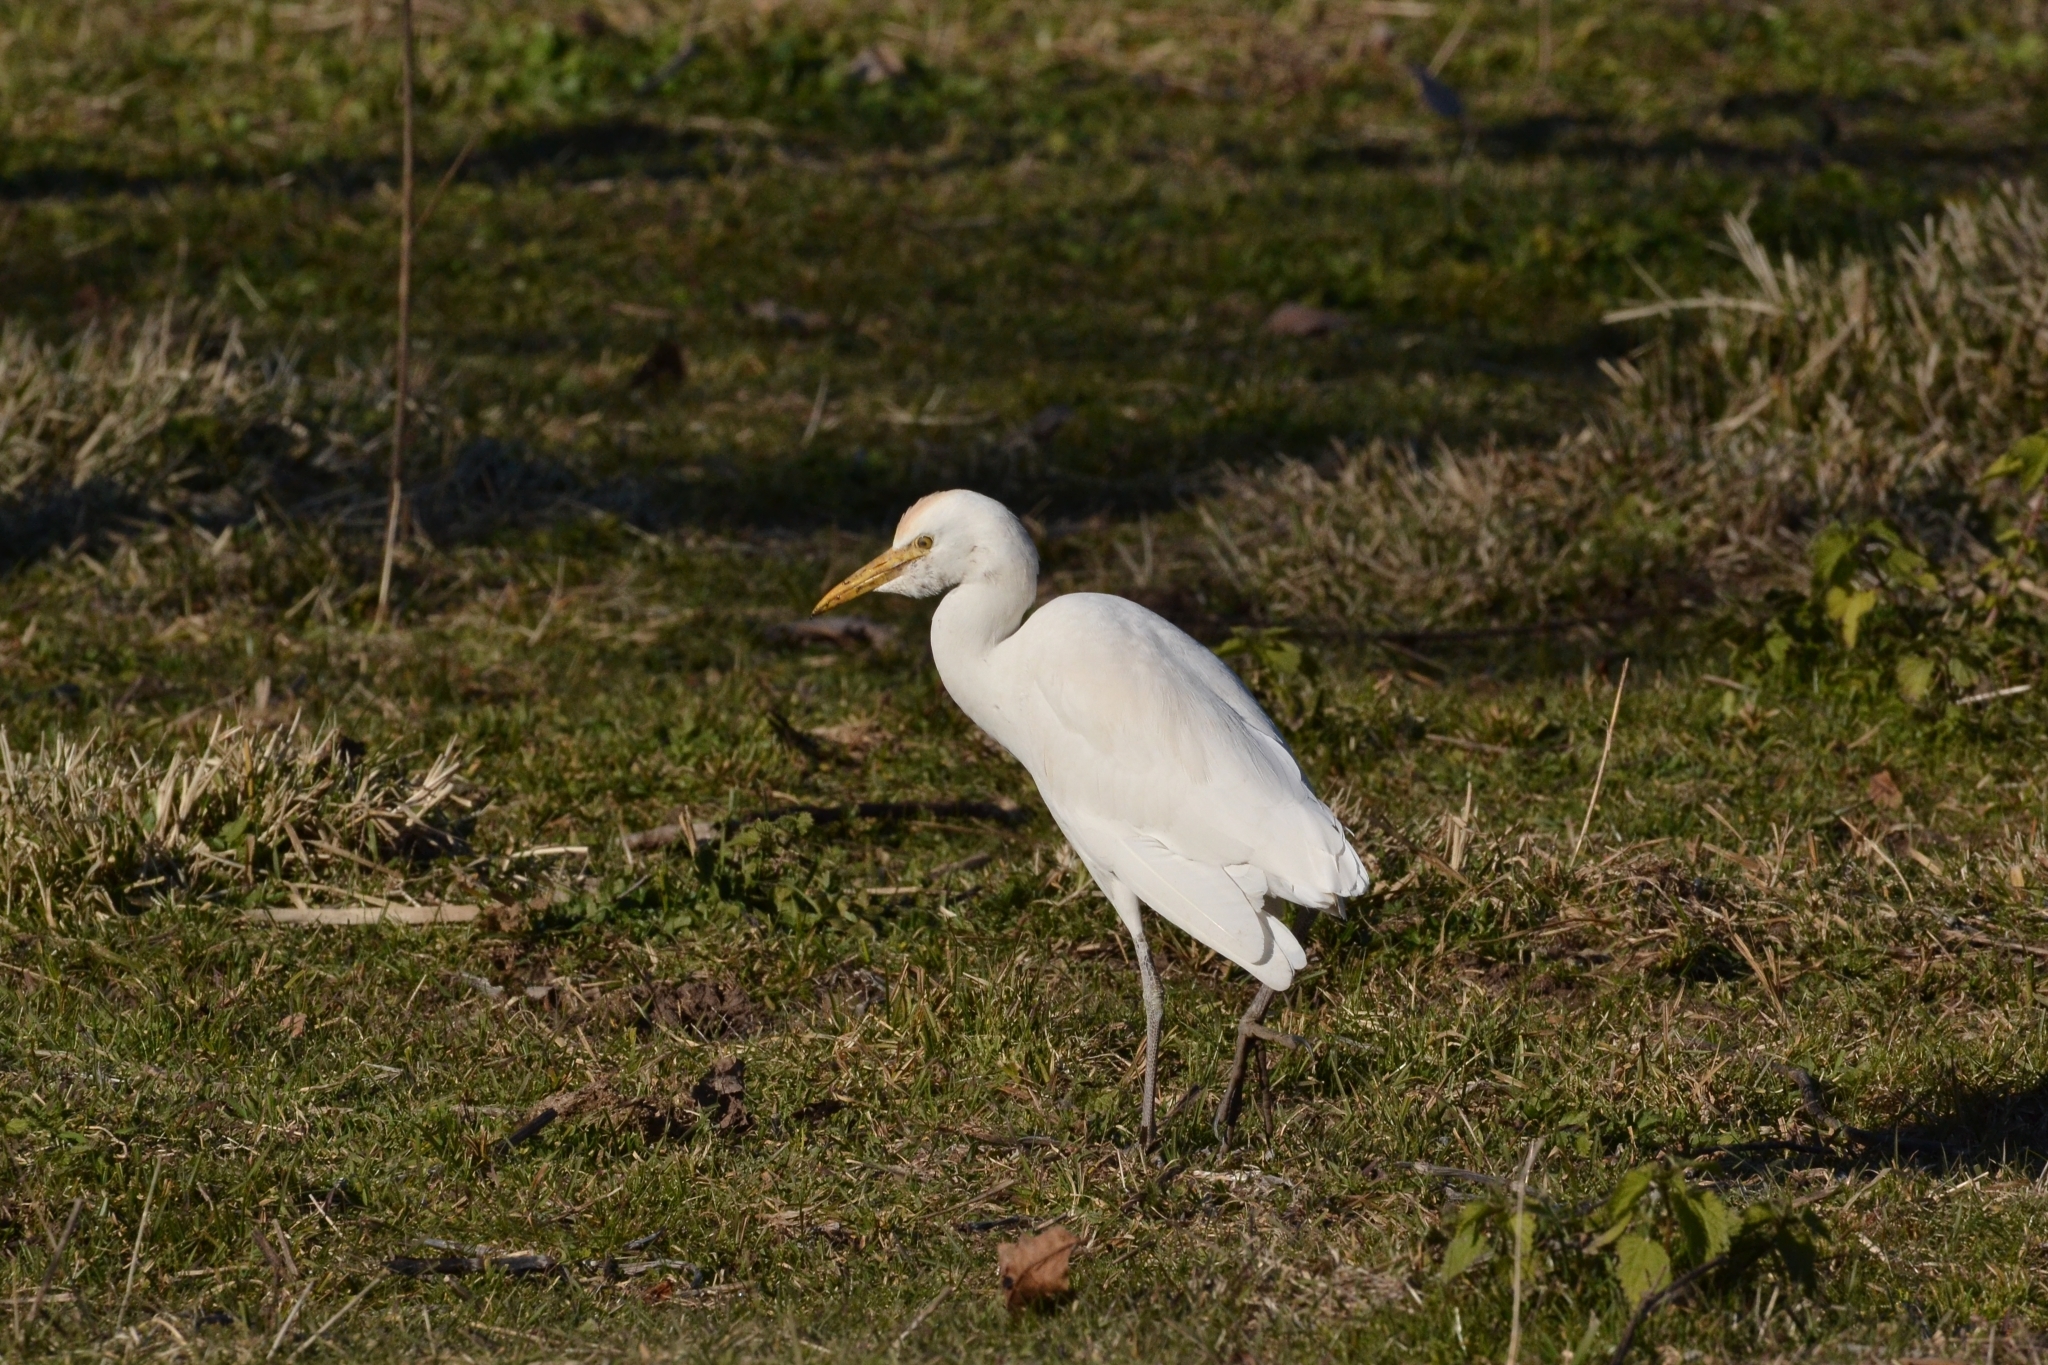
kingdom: Animalia
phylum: Chordata
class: Aves
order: Pelecaniformes
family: Ardeidae
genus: Bubulcus
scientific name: Bubulcus ibis
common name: Cattle egret
